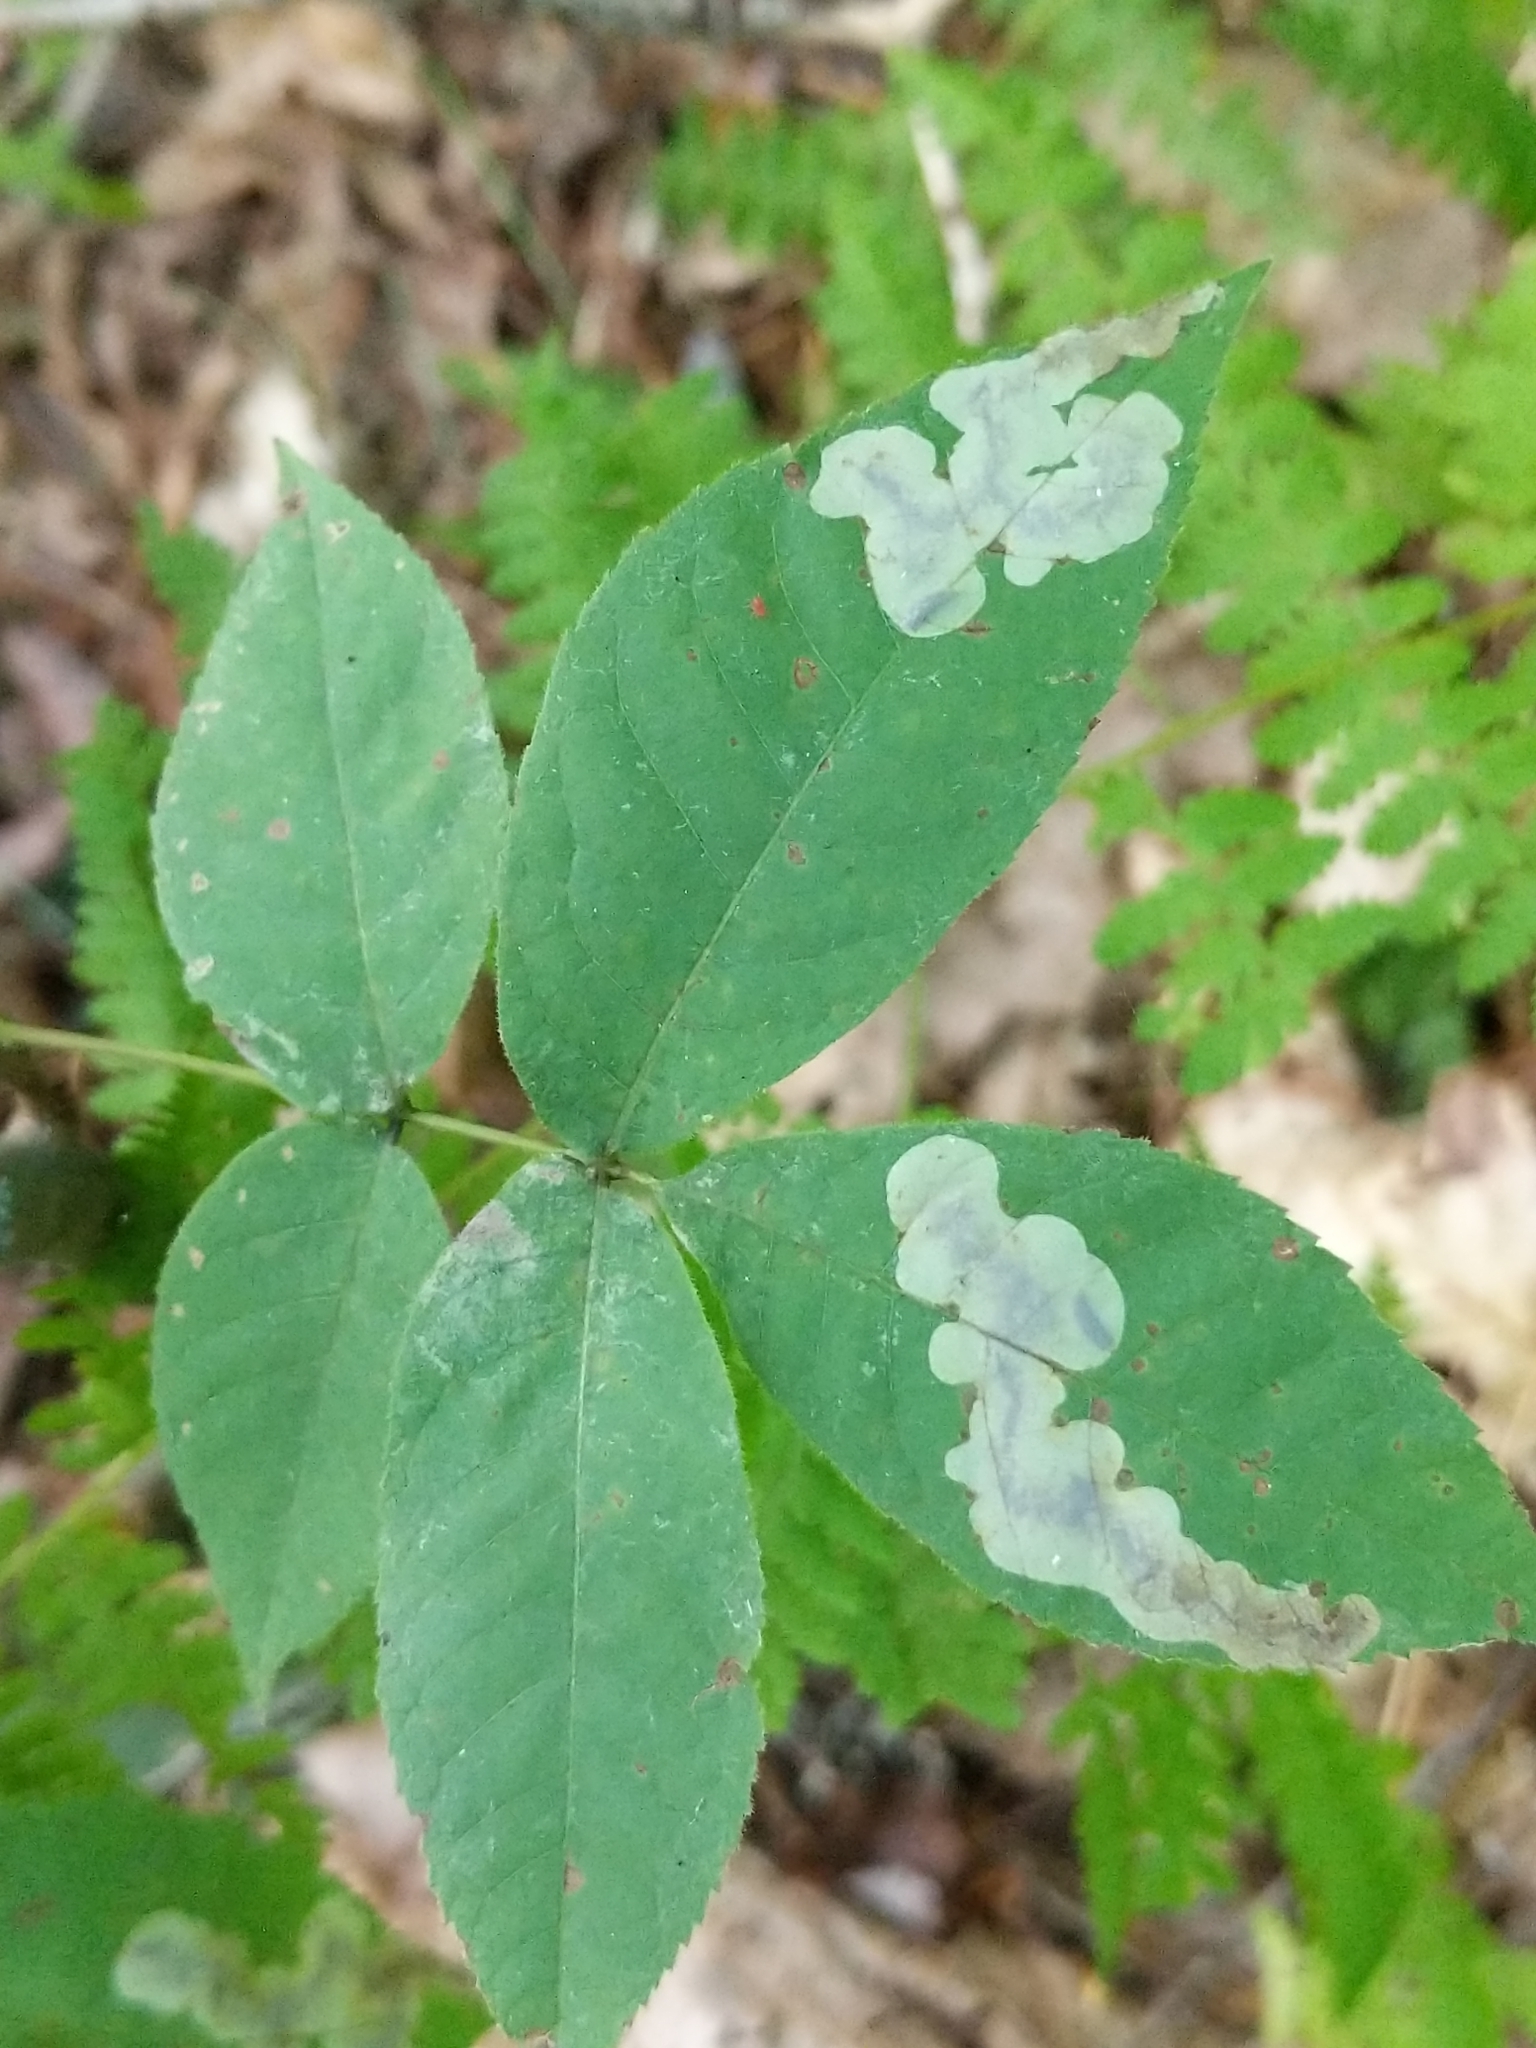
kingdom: Animalia
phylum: Arthropoda
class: Insecta
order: Lepidoptera
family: Gracillariidae
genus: Cameraria
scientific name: Cameraria caryaefoliella
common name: Pecan leafminer moth
